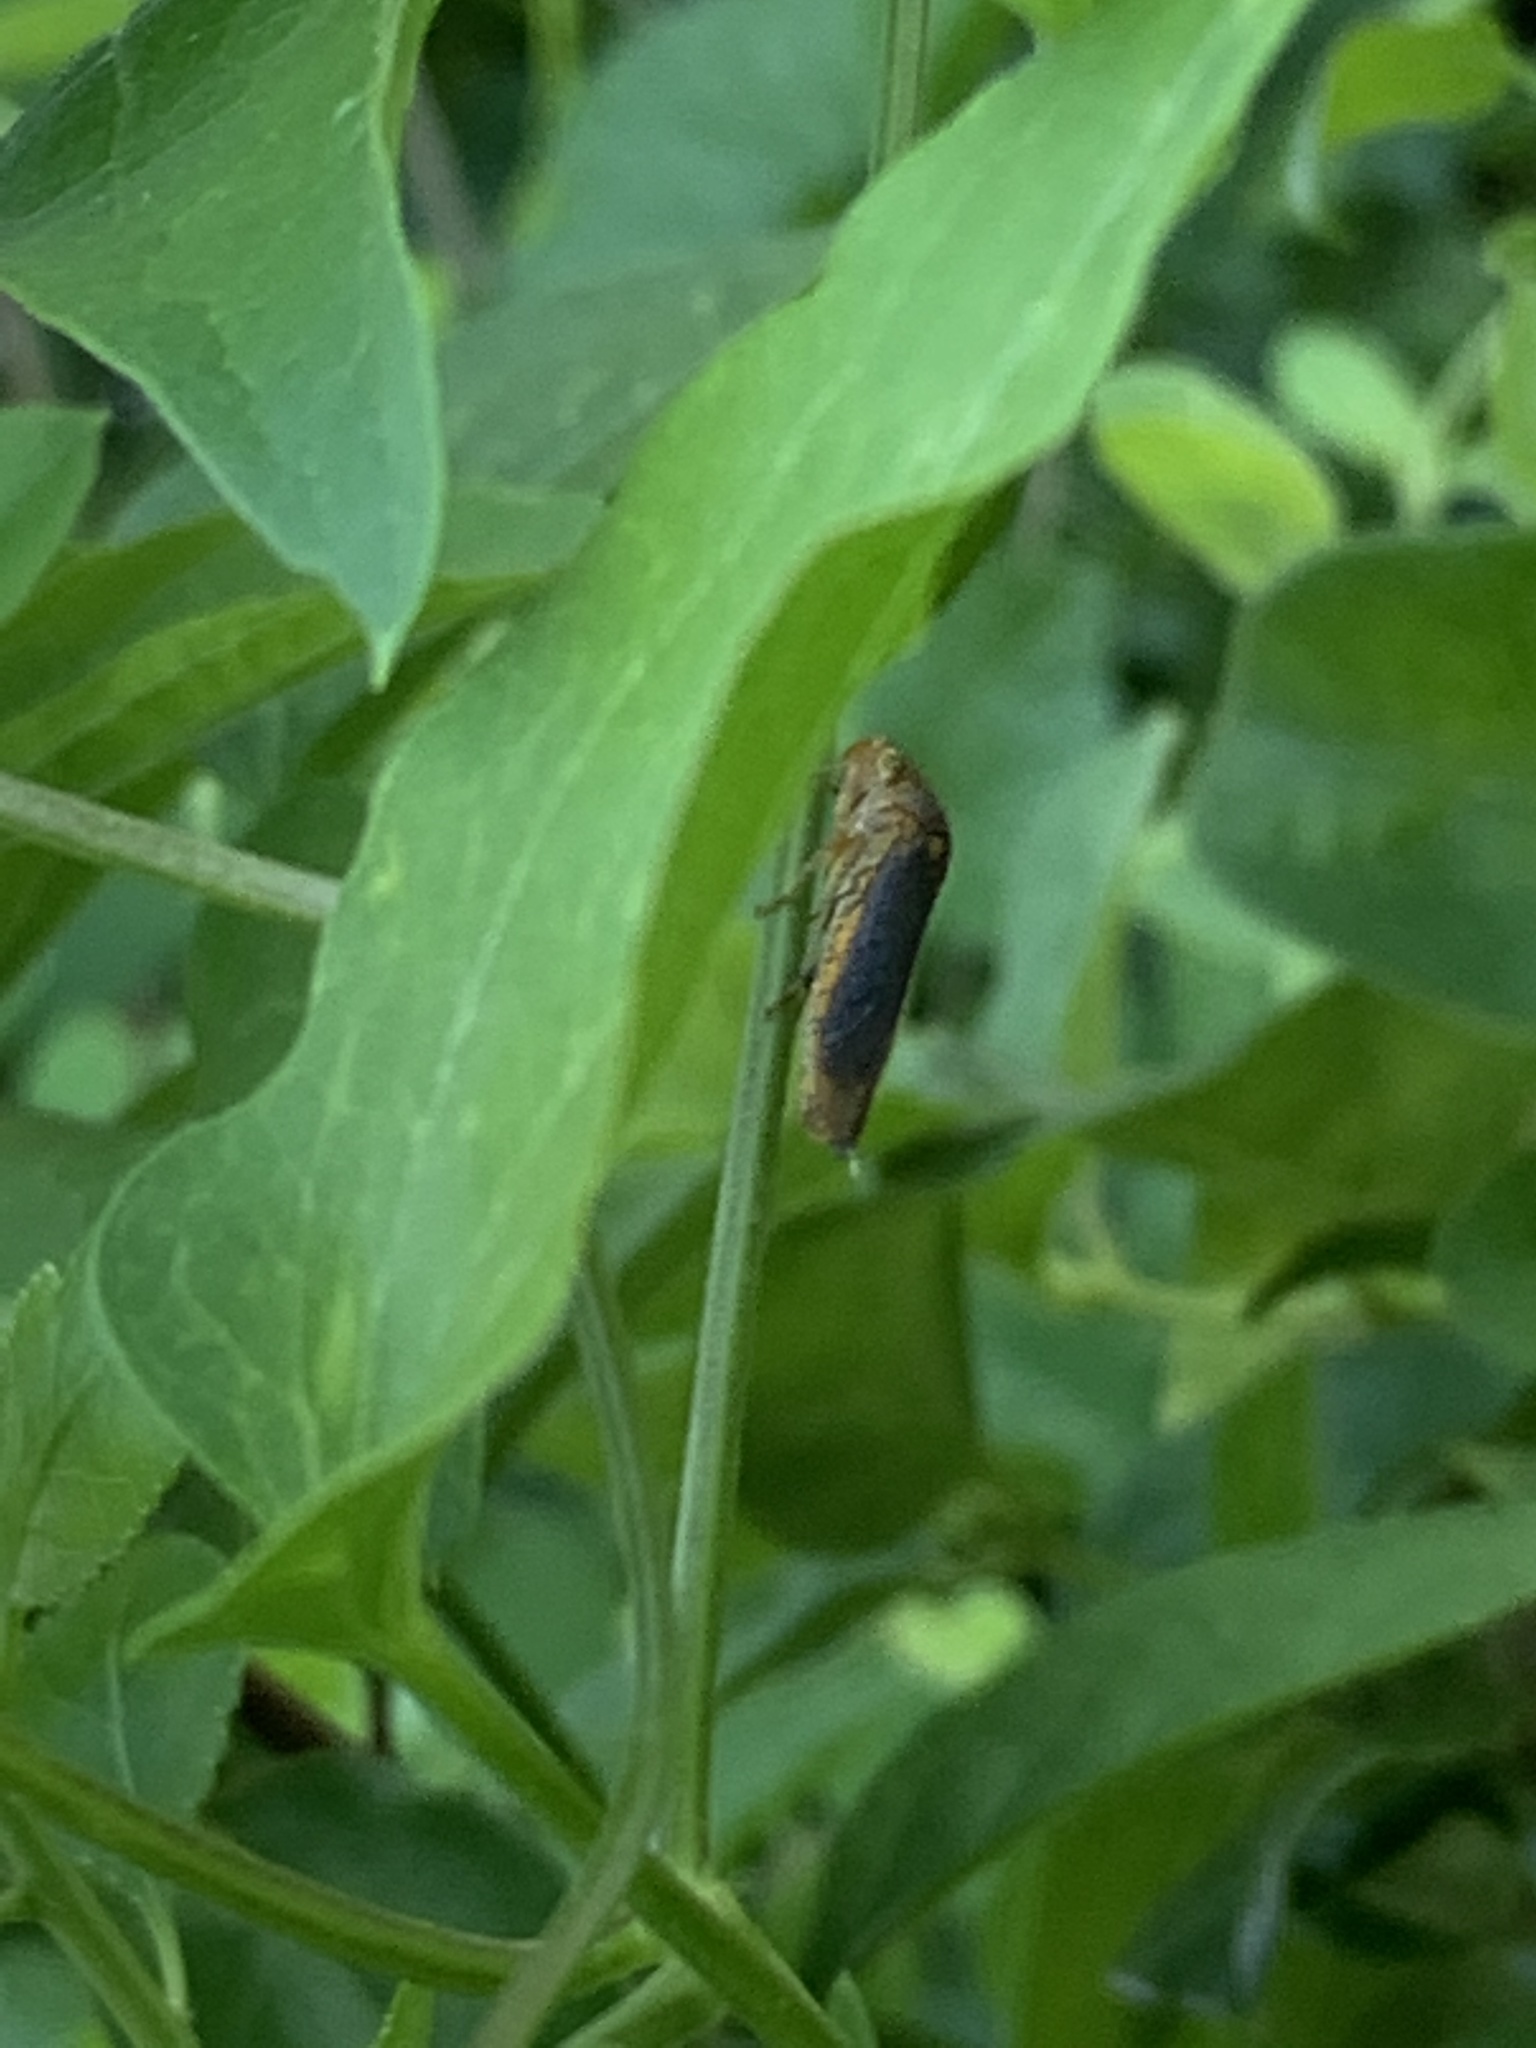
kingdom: Animalia
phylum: Arthropoda
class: Insecta
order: Hemiptera
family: Cicadellidae
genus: Oncometopia
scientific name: Oncometopia orbona
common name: Broad-headed sharpshooter
